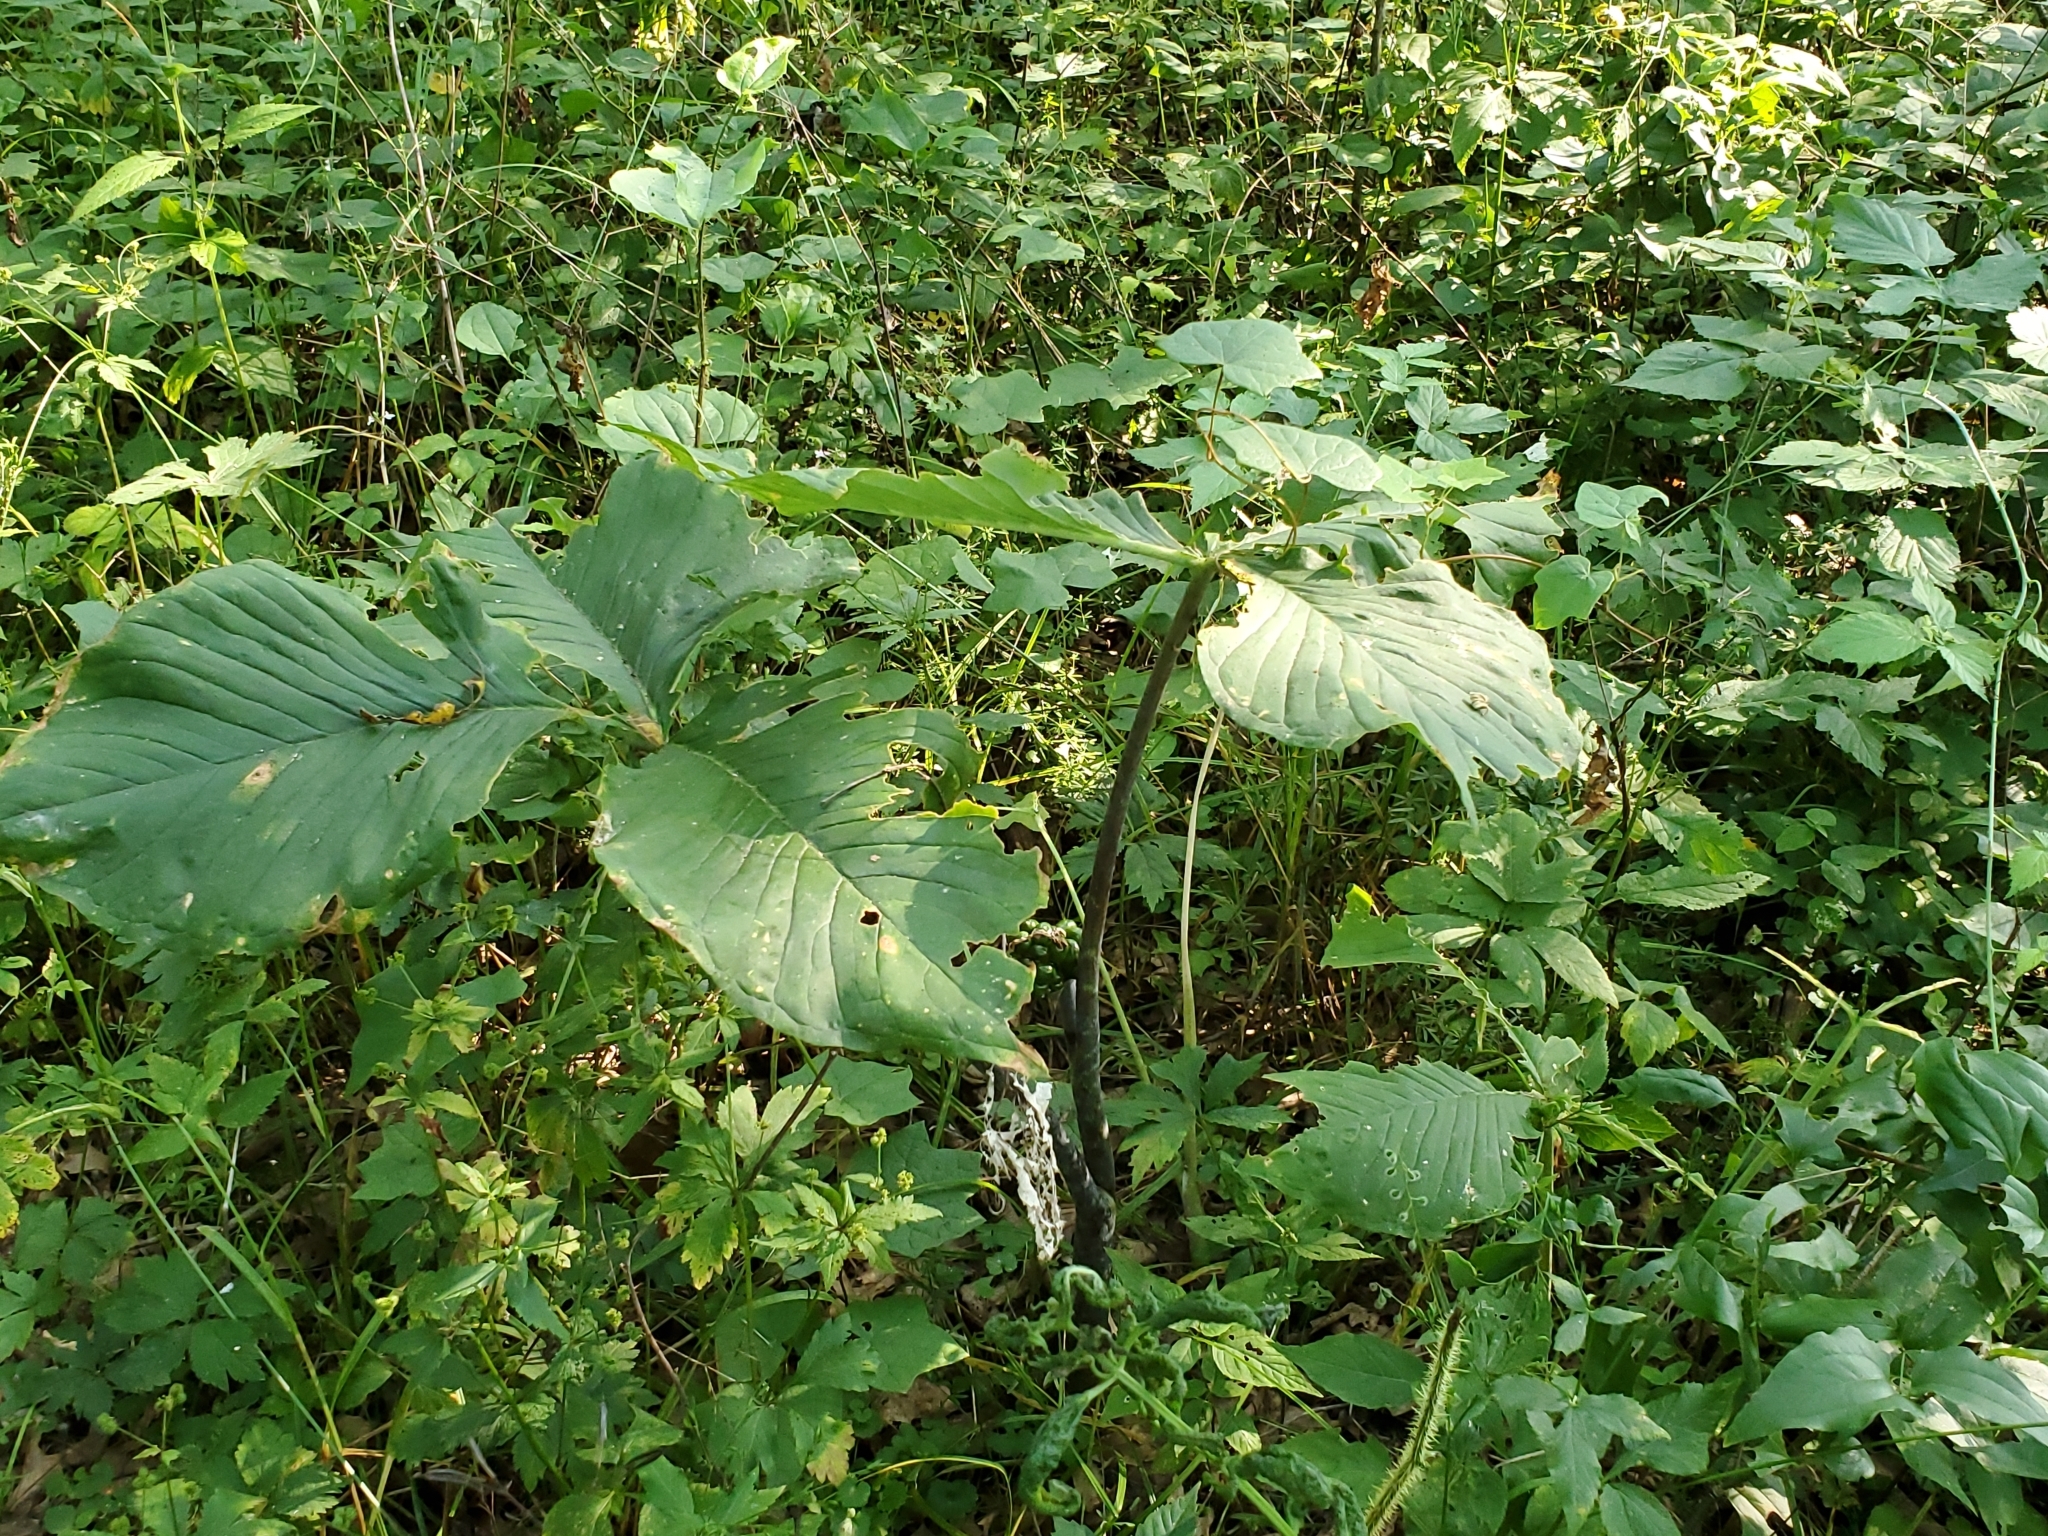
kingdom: Plantae
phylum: Tracheophyta
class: Liliopsida
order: Alismatales
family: Araceae
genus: Arisaema
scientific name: Arisaema triphyllum
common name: Jack-in-the-pulpit
